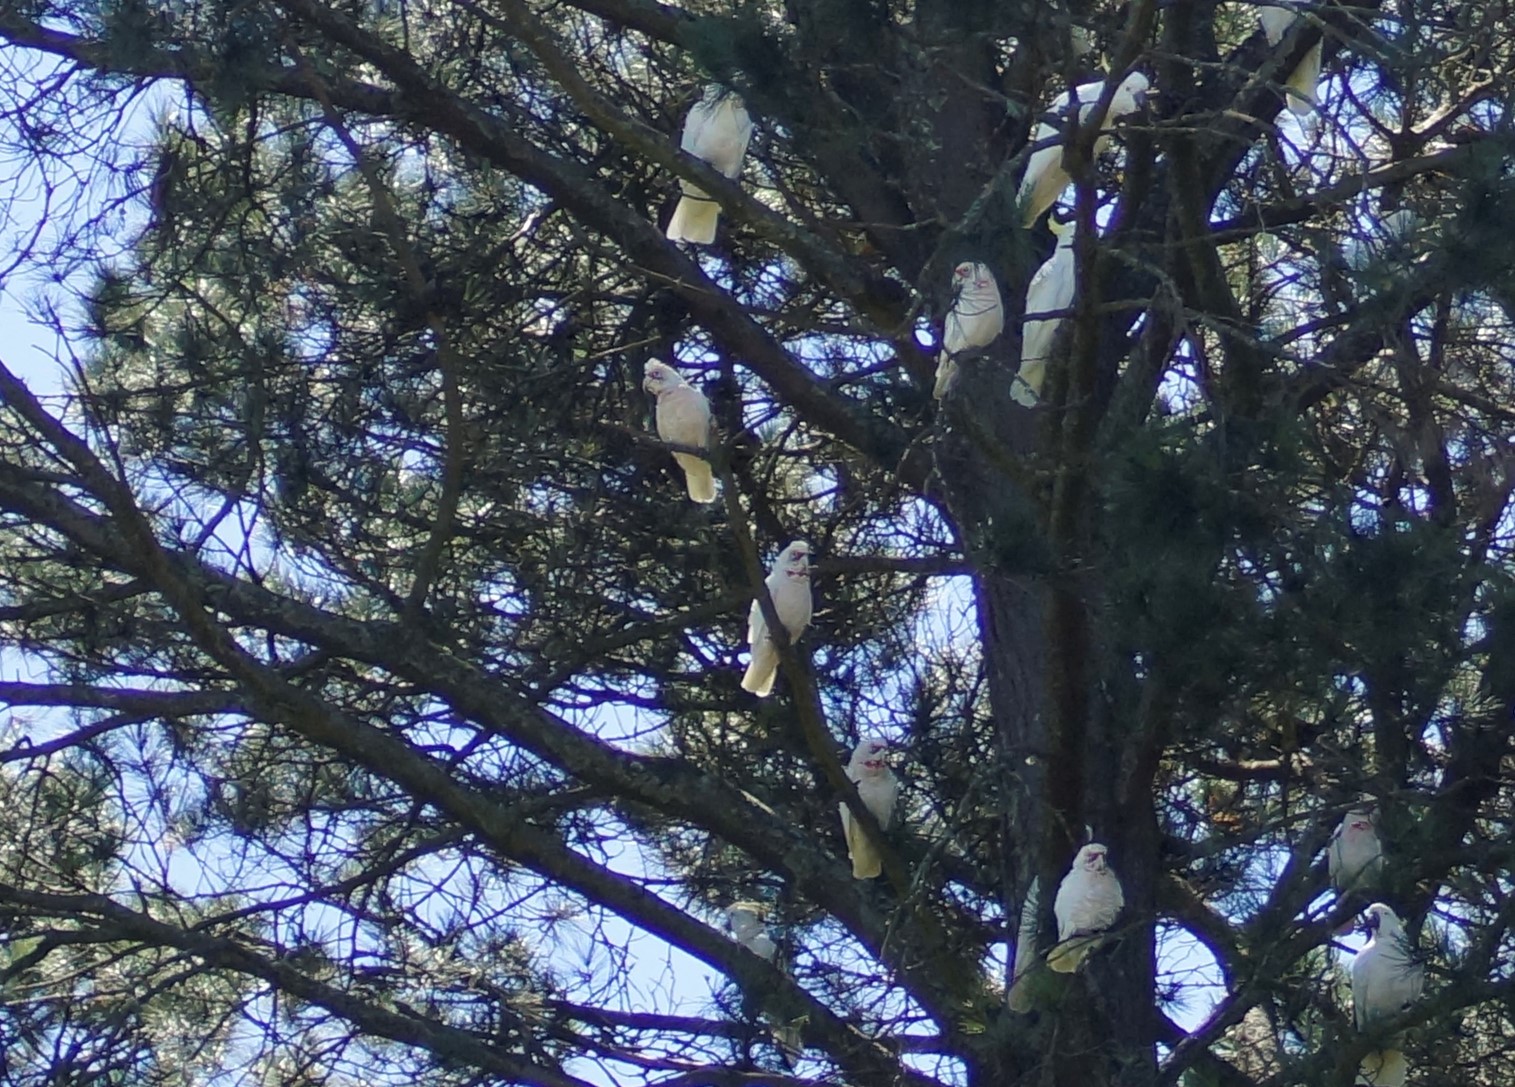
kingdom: Animalia
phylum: Chordata
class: Aves
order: Psittaciformes
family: Psittacidae
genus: Cacatua
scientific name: Cacatua tenuirostris
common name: Long-billed corella
